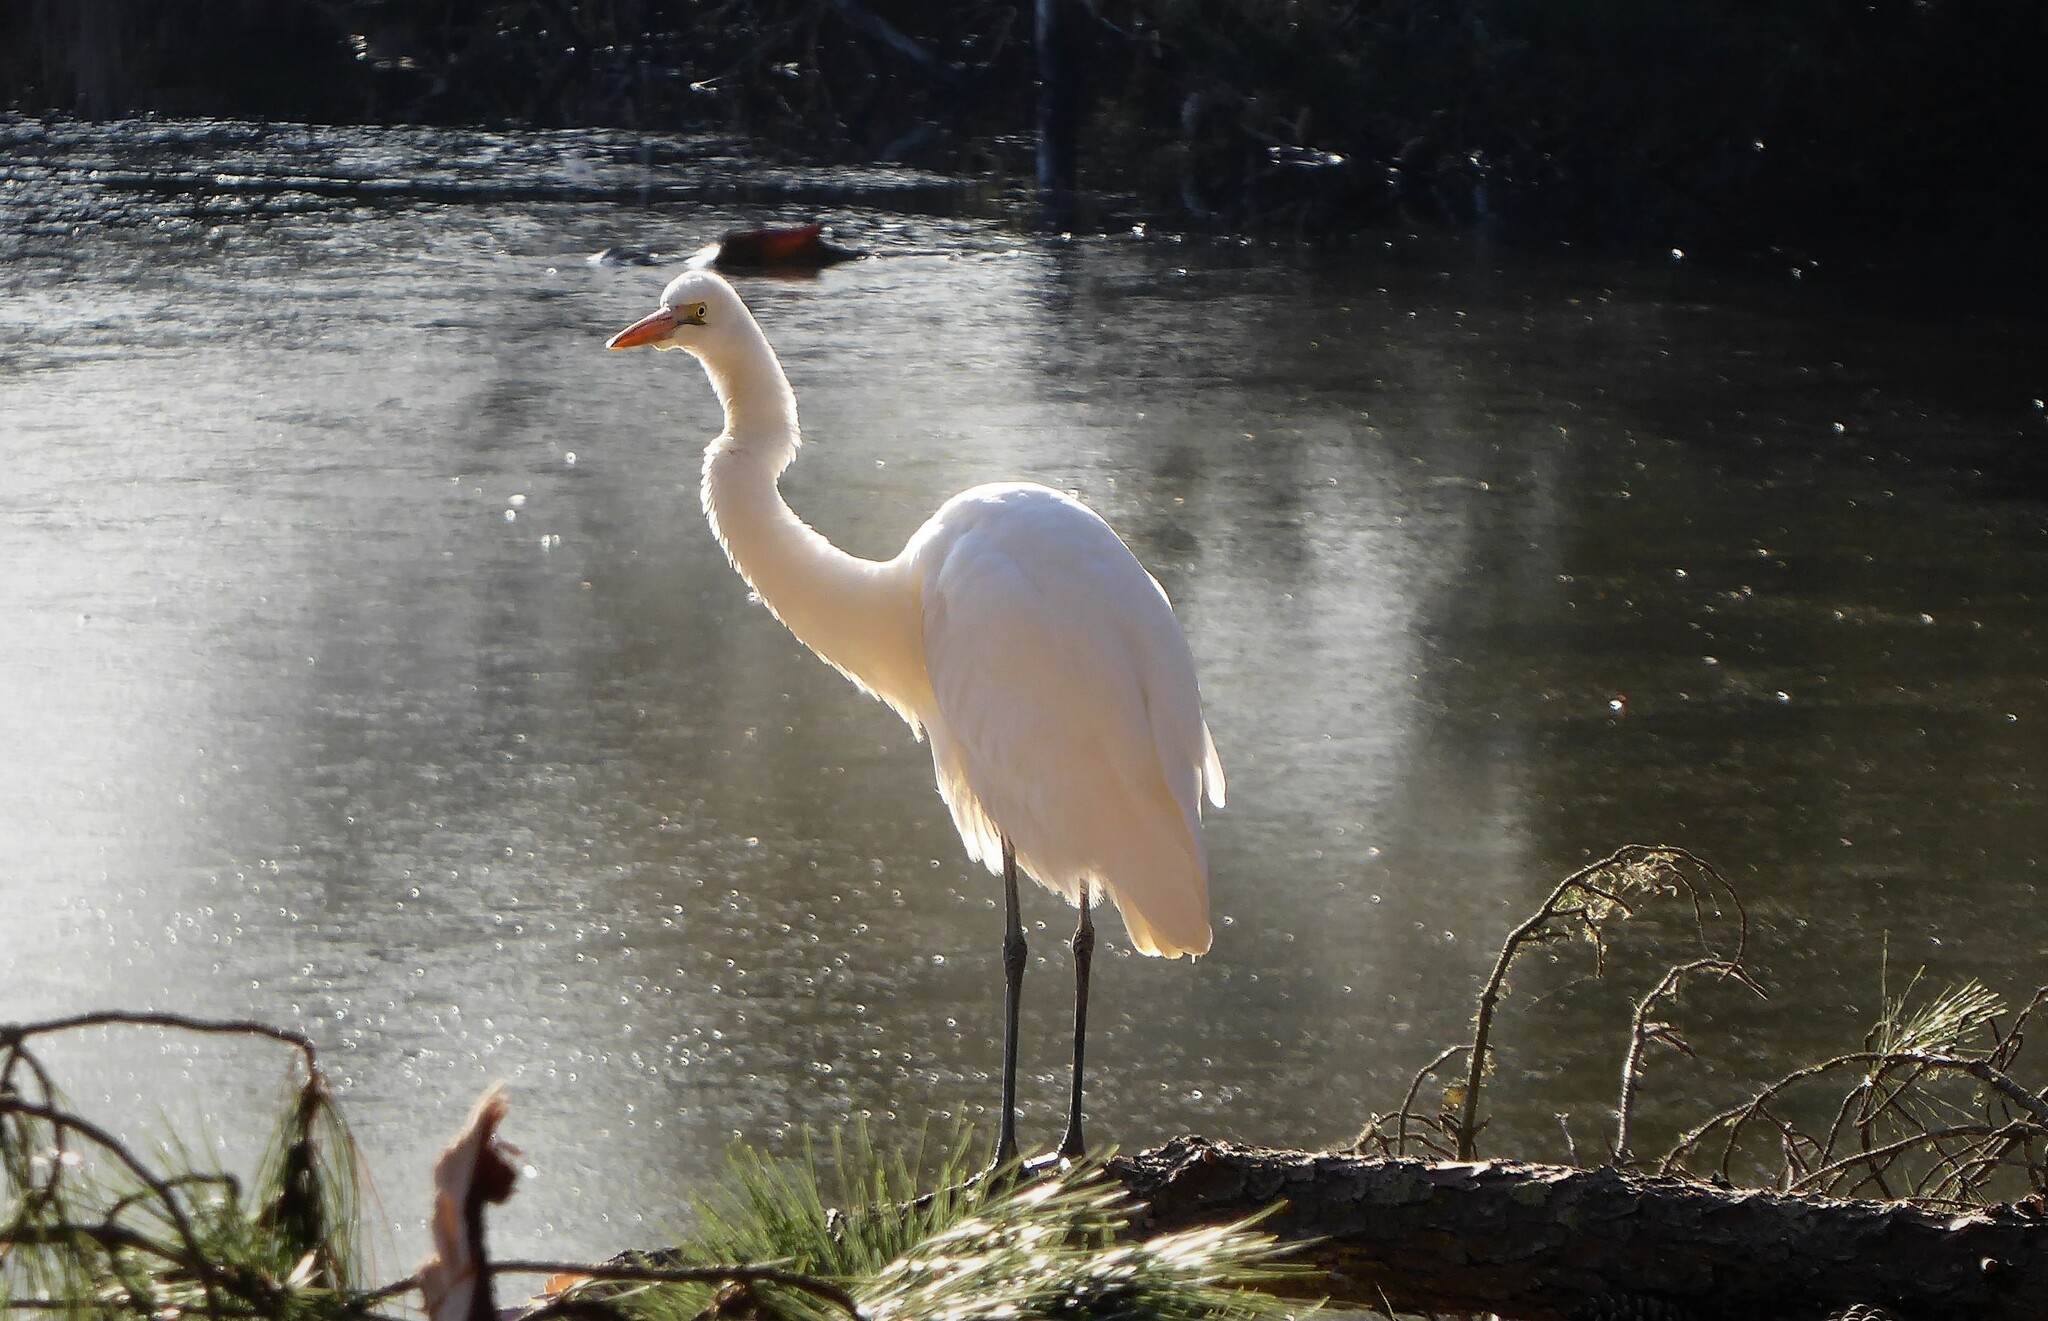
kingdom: Animalia
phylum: Chordata
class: Aves
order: Pelecaniformes
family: Ardeidae
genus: Ardea
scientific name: Ardea modesta
